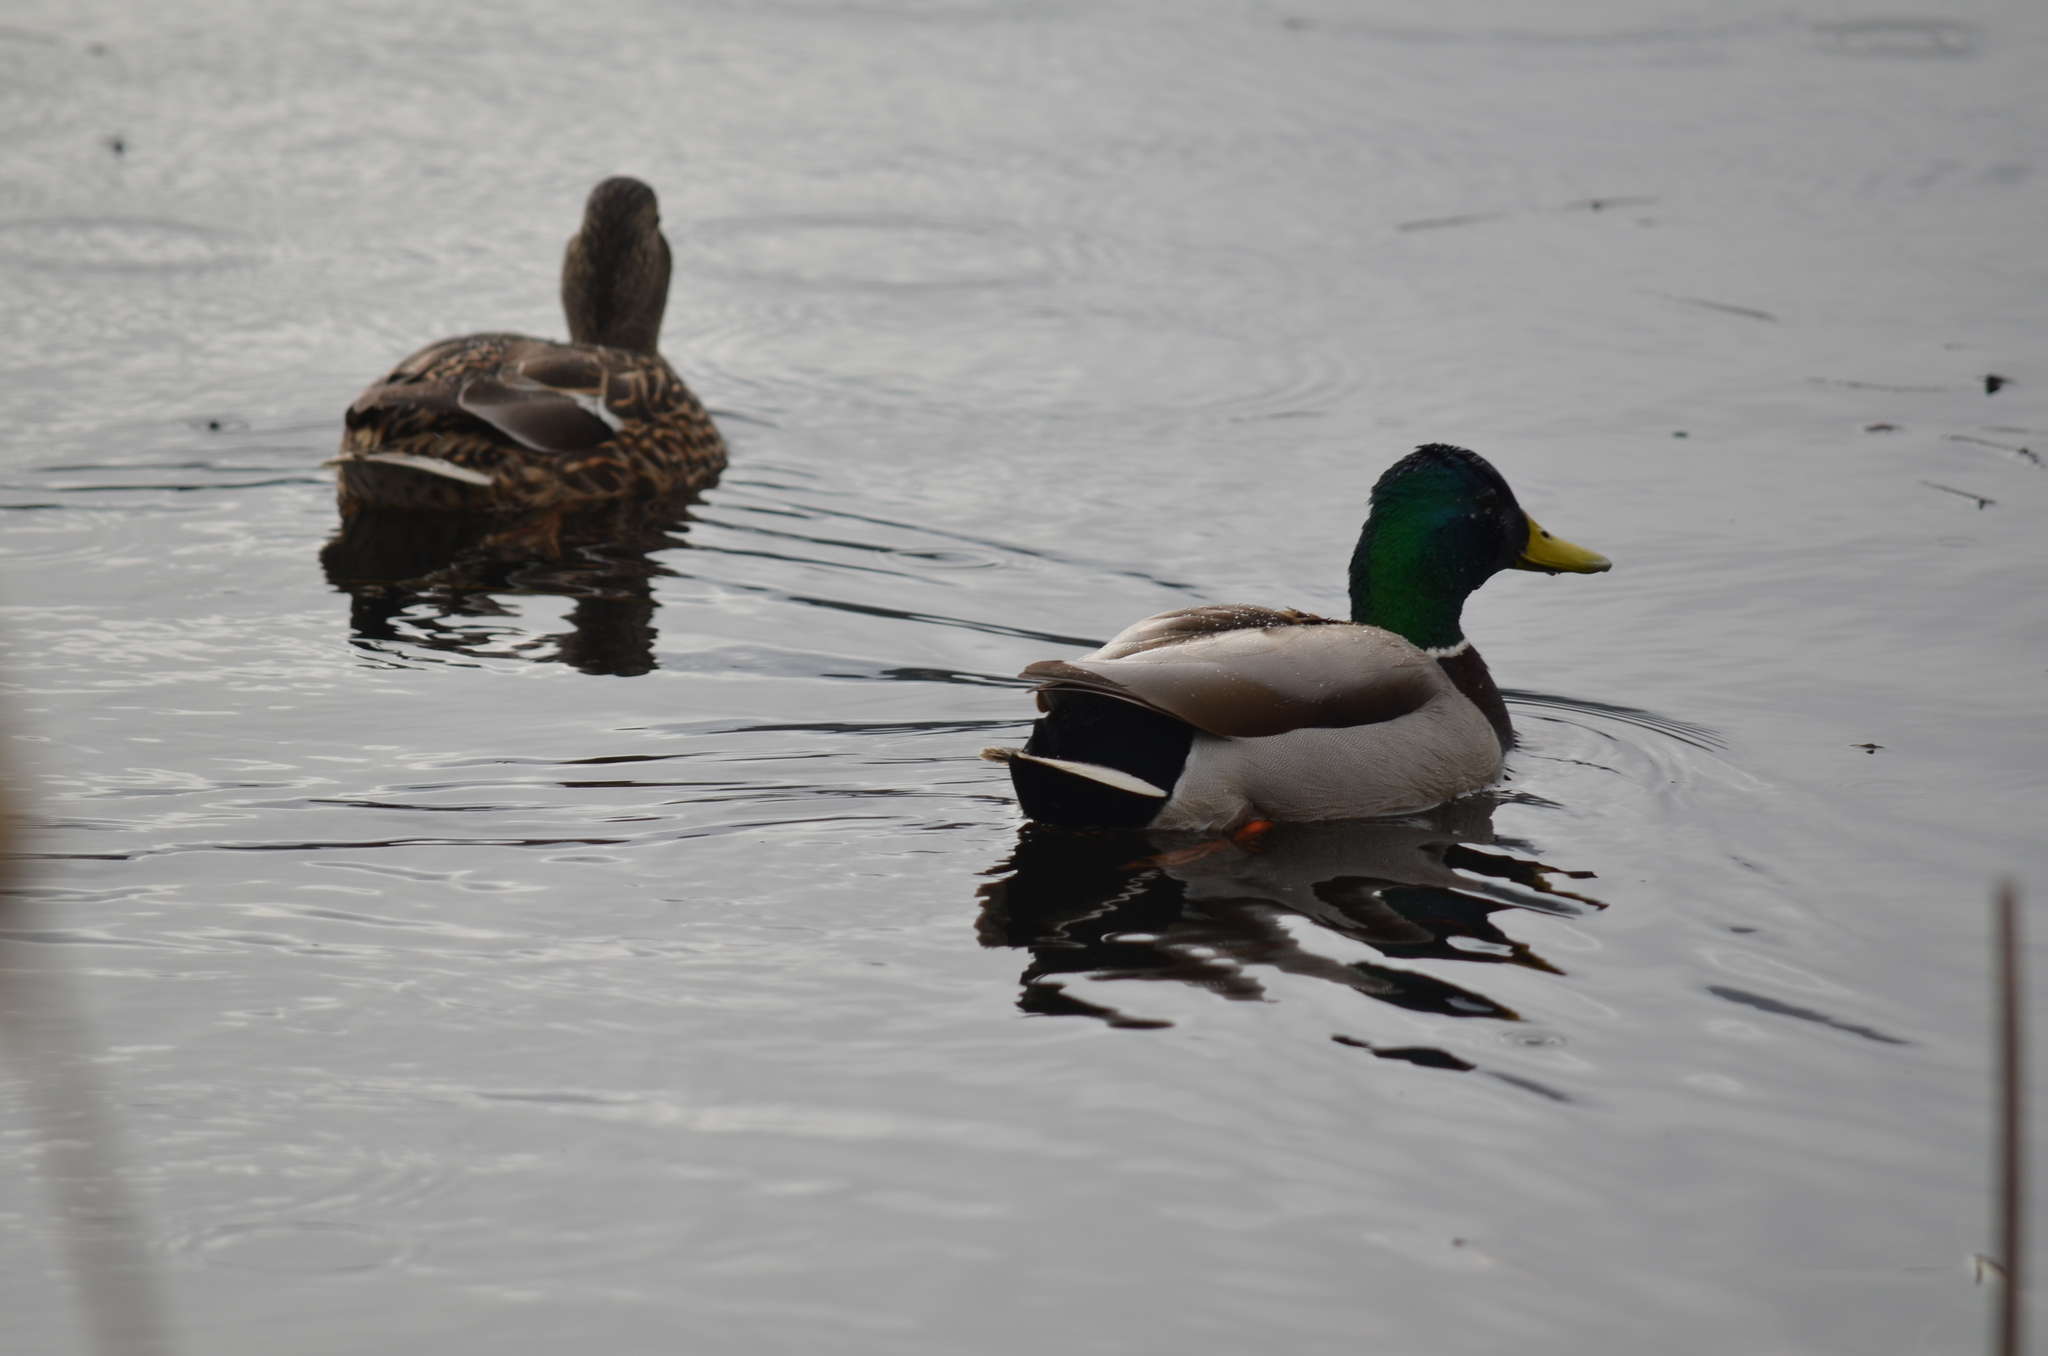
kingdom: Animalia
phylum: Chordata
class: Aves
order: Anseriformes
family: Anatidae
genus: Anas
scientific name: Anas platyrhynchos
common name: Mallard
